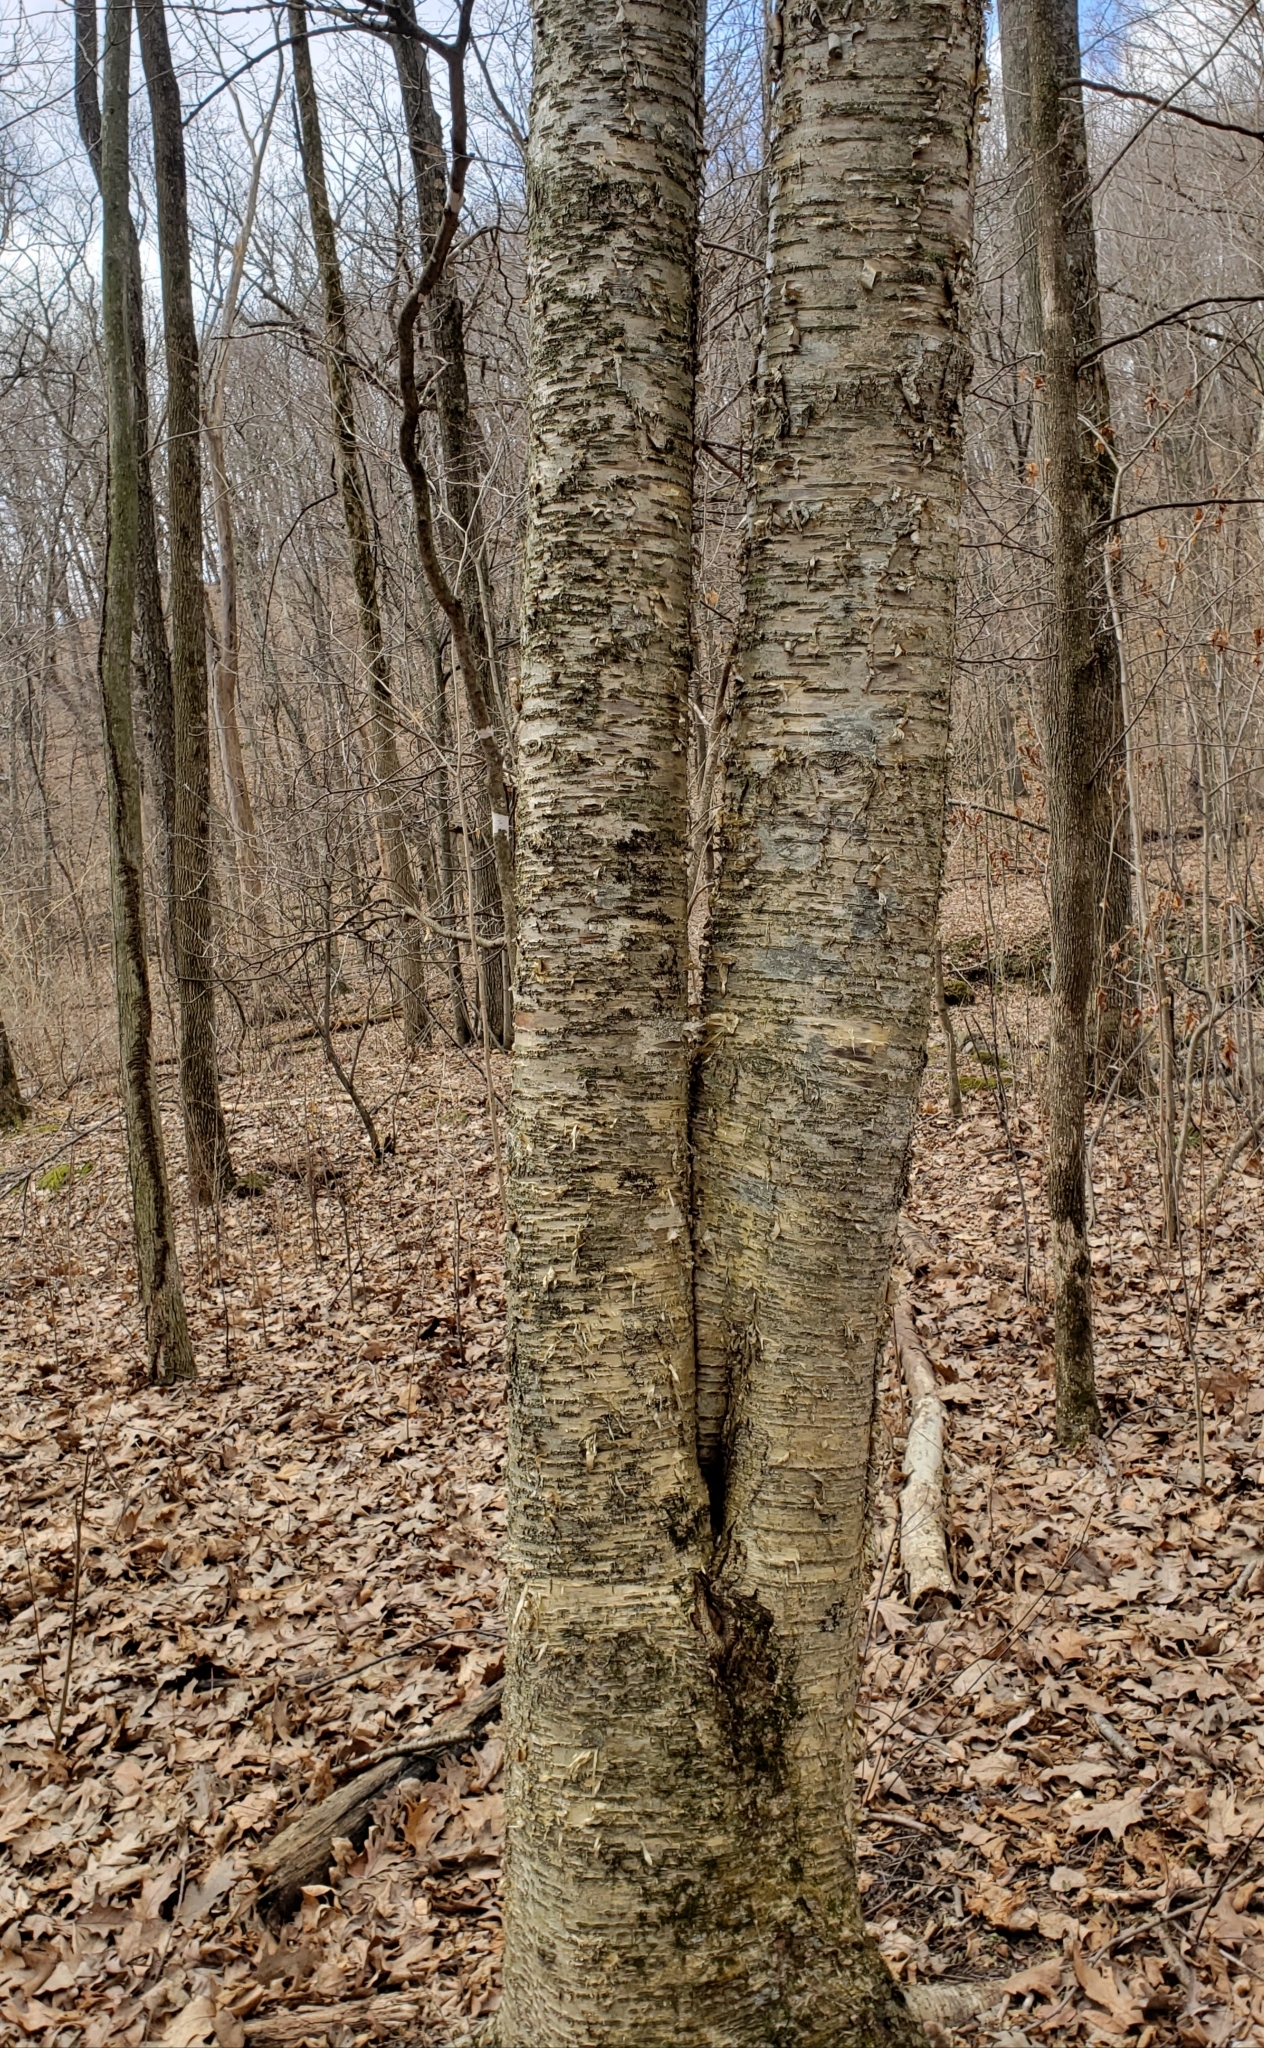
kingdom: Plantae
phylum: Tracheophyta
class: Magnoliopsida
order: Fagales
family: Betulaceae
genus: Betula
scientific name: Betula alleghaniensis
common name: Yellow birch
